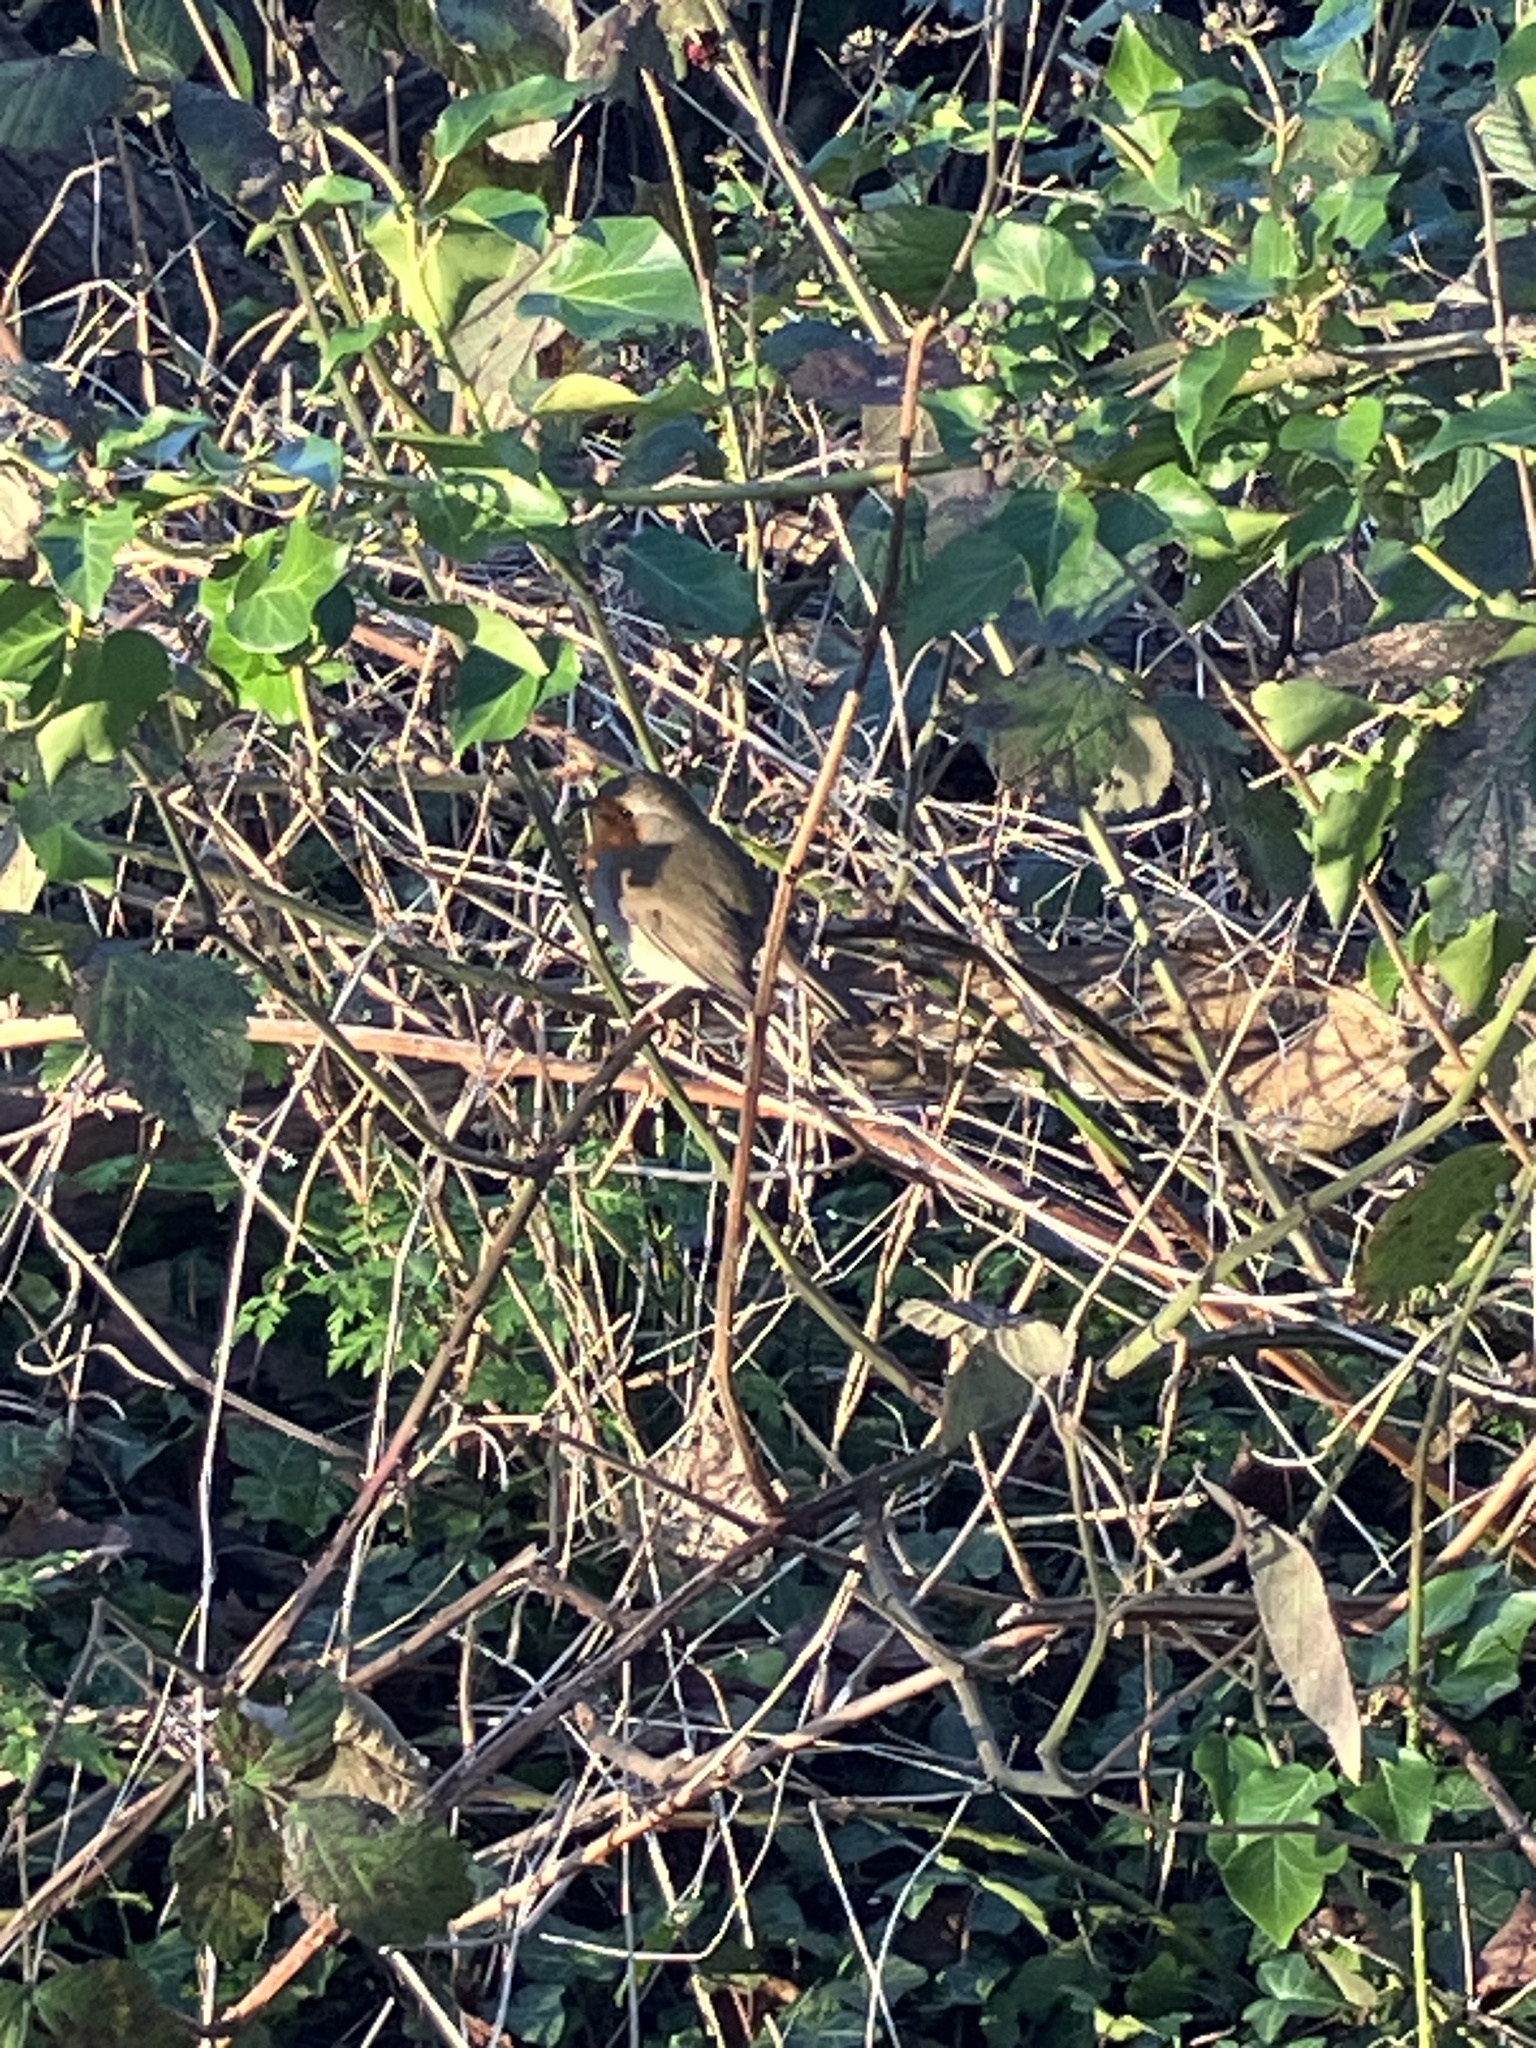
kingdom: Animalia
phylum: Chordata
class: Aves
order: Passeriformes
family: Muscicapidae
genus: Erithacus
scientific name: Erithacus rubecula
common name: European robin
